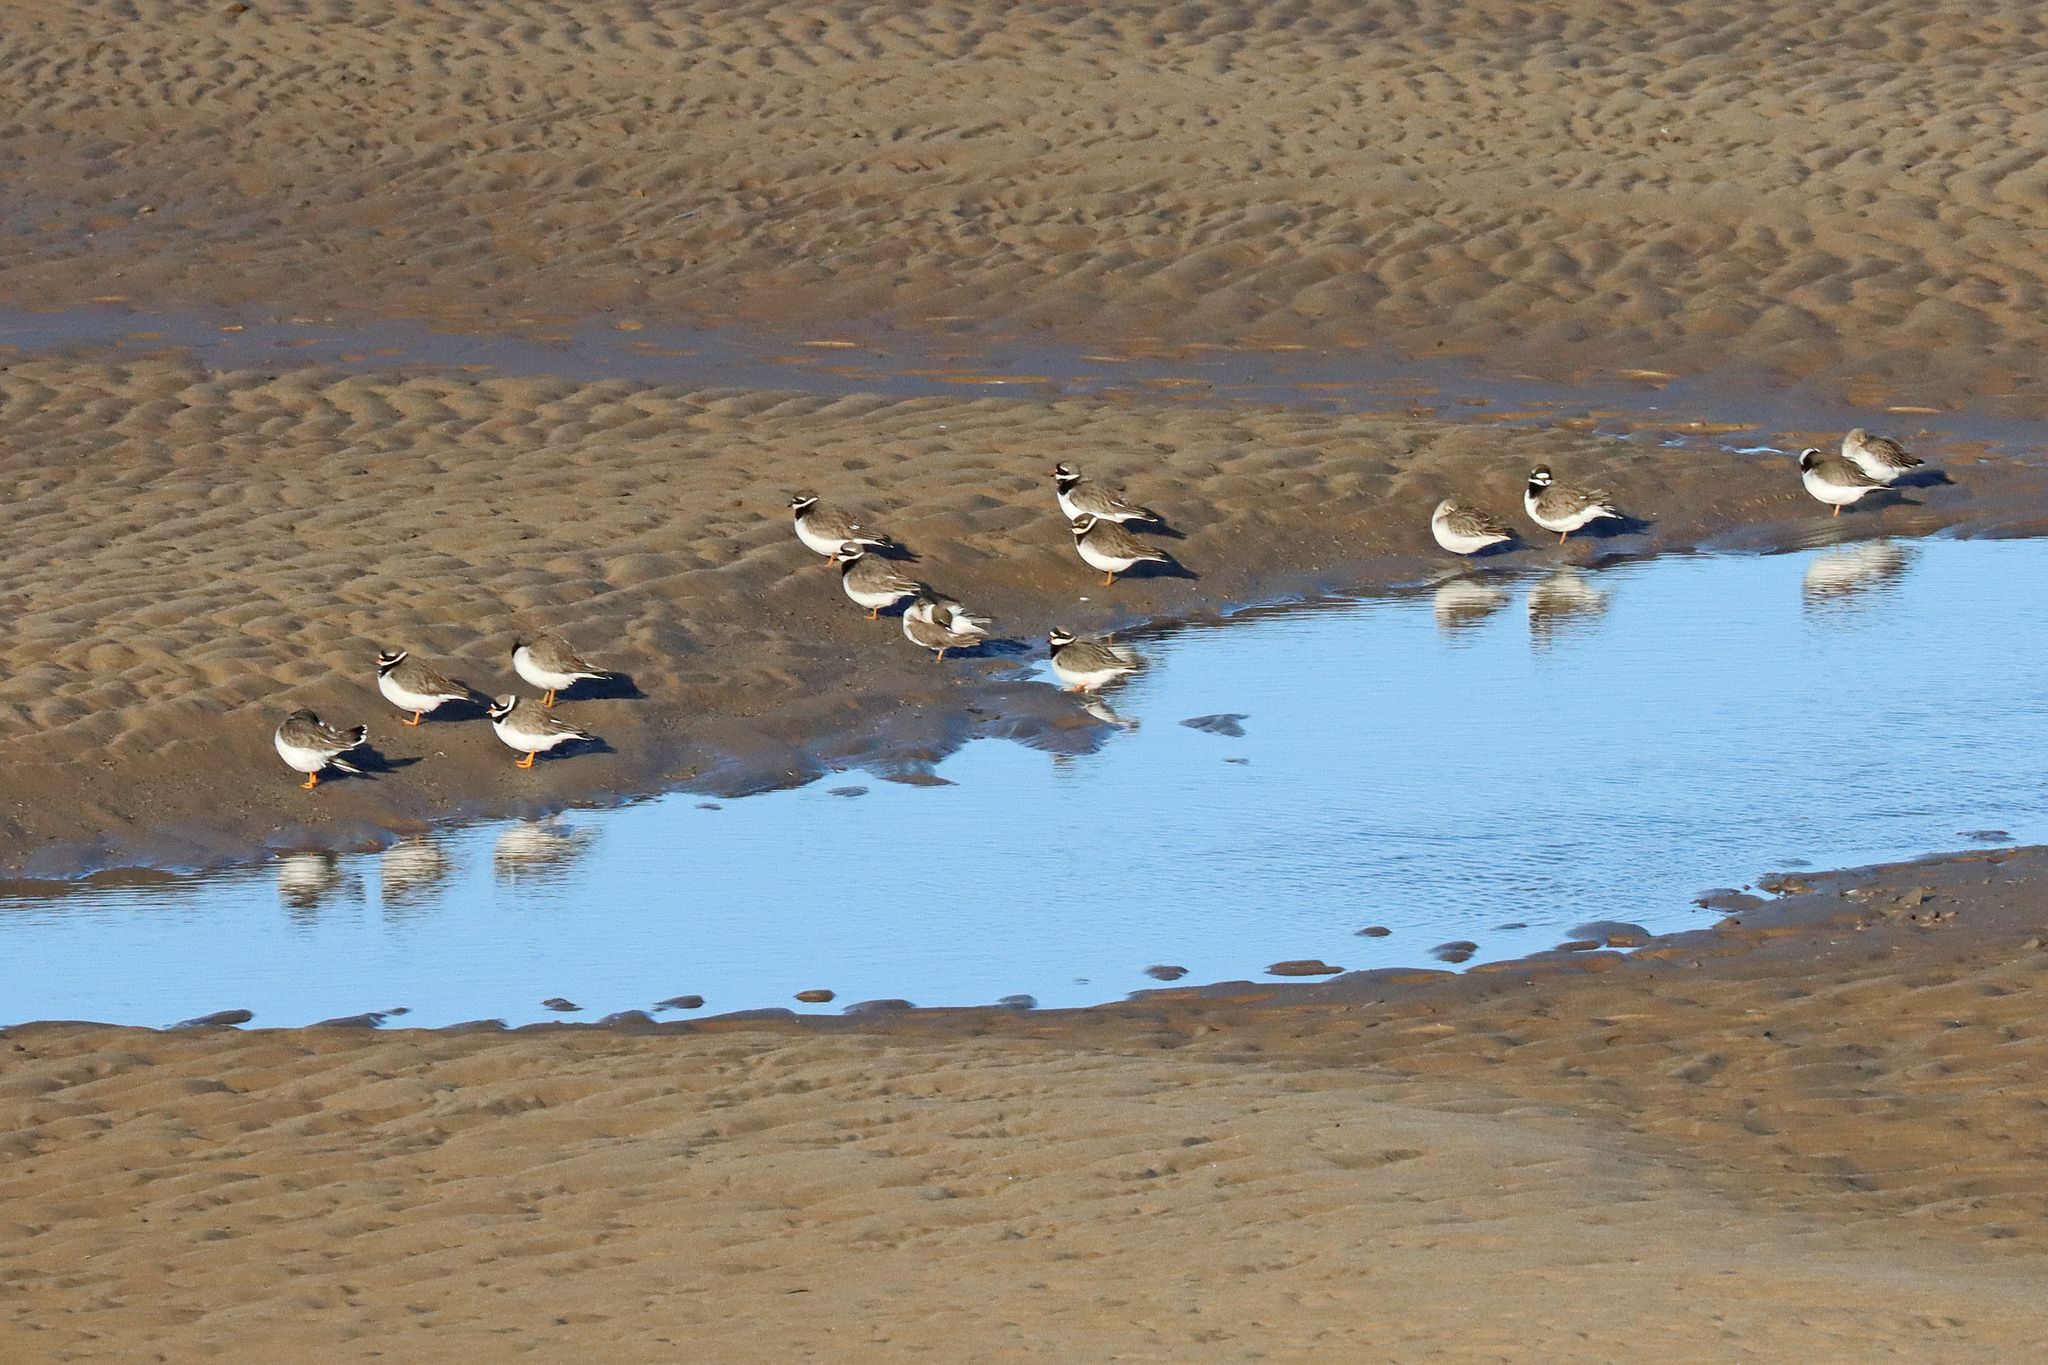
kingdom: Animalia
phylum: Chordata
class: Aves
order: Charadriiformes
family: Charadriidae
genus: Charadrius
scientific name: Charadrius hiaticula
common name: Common ringed plover
